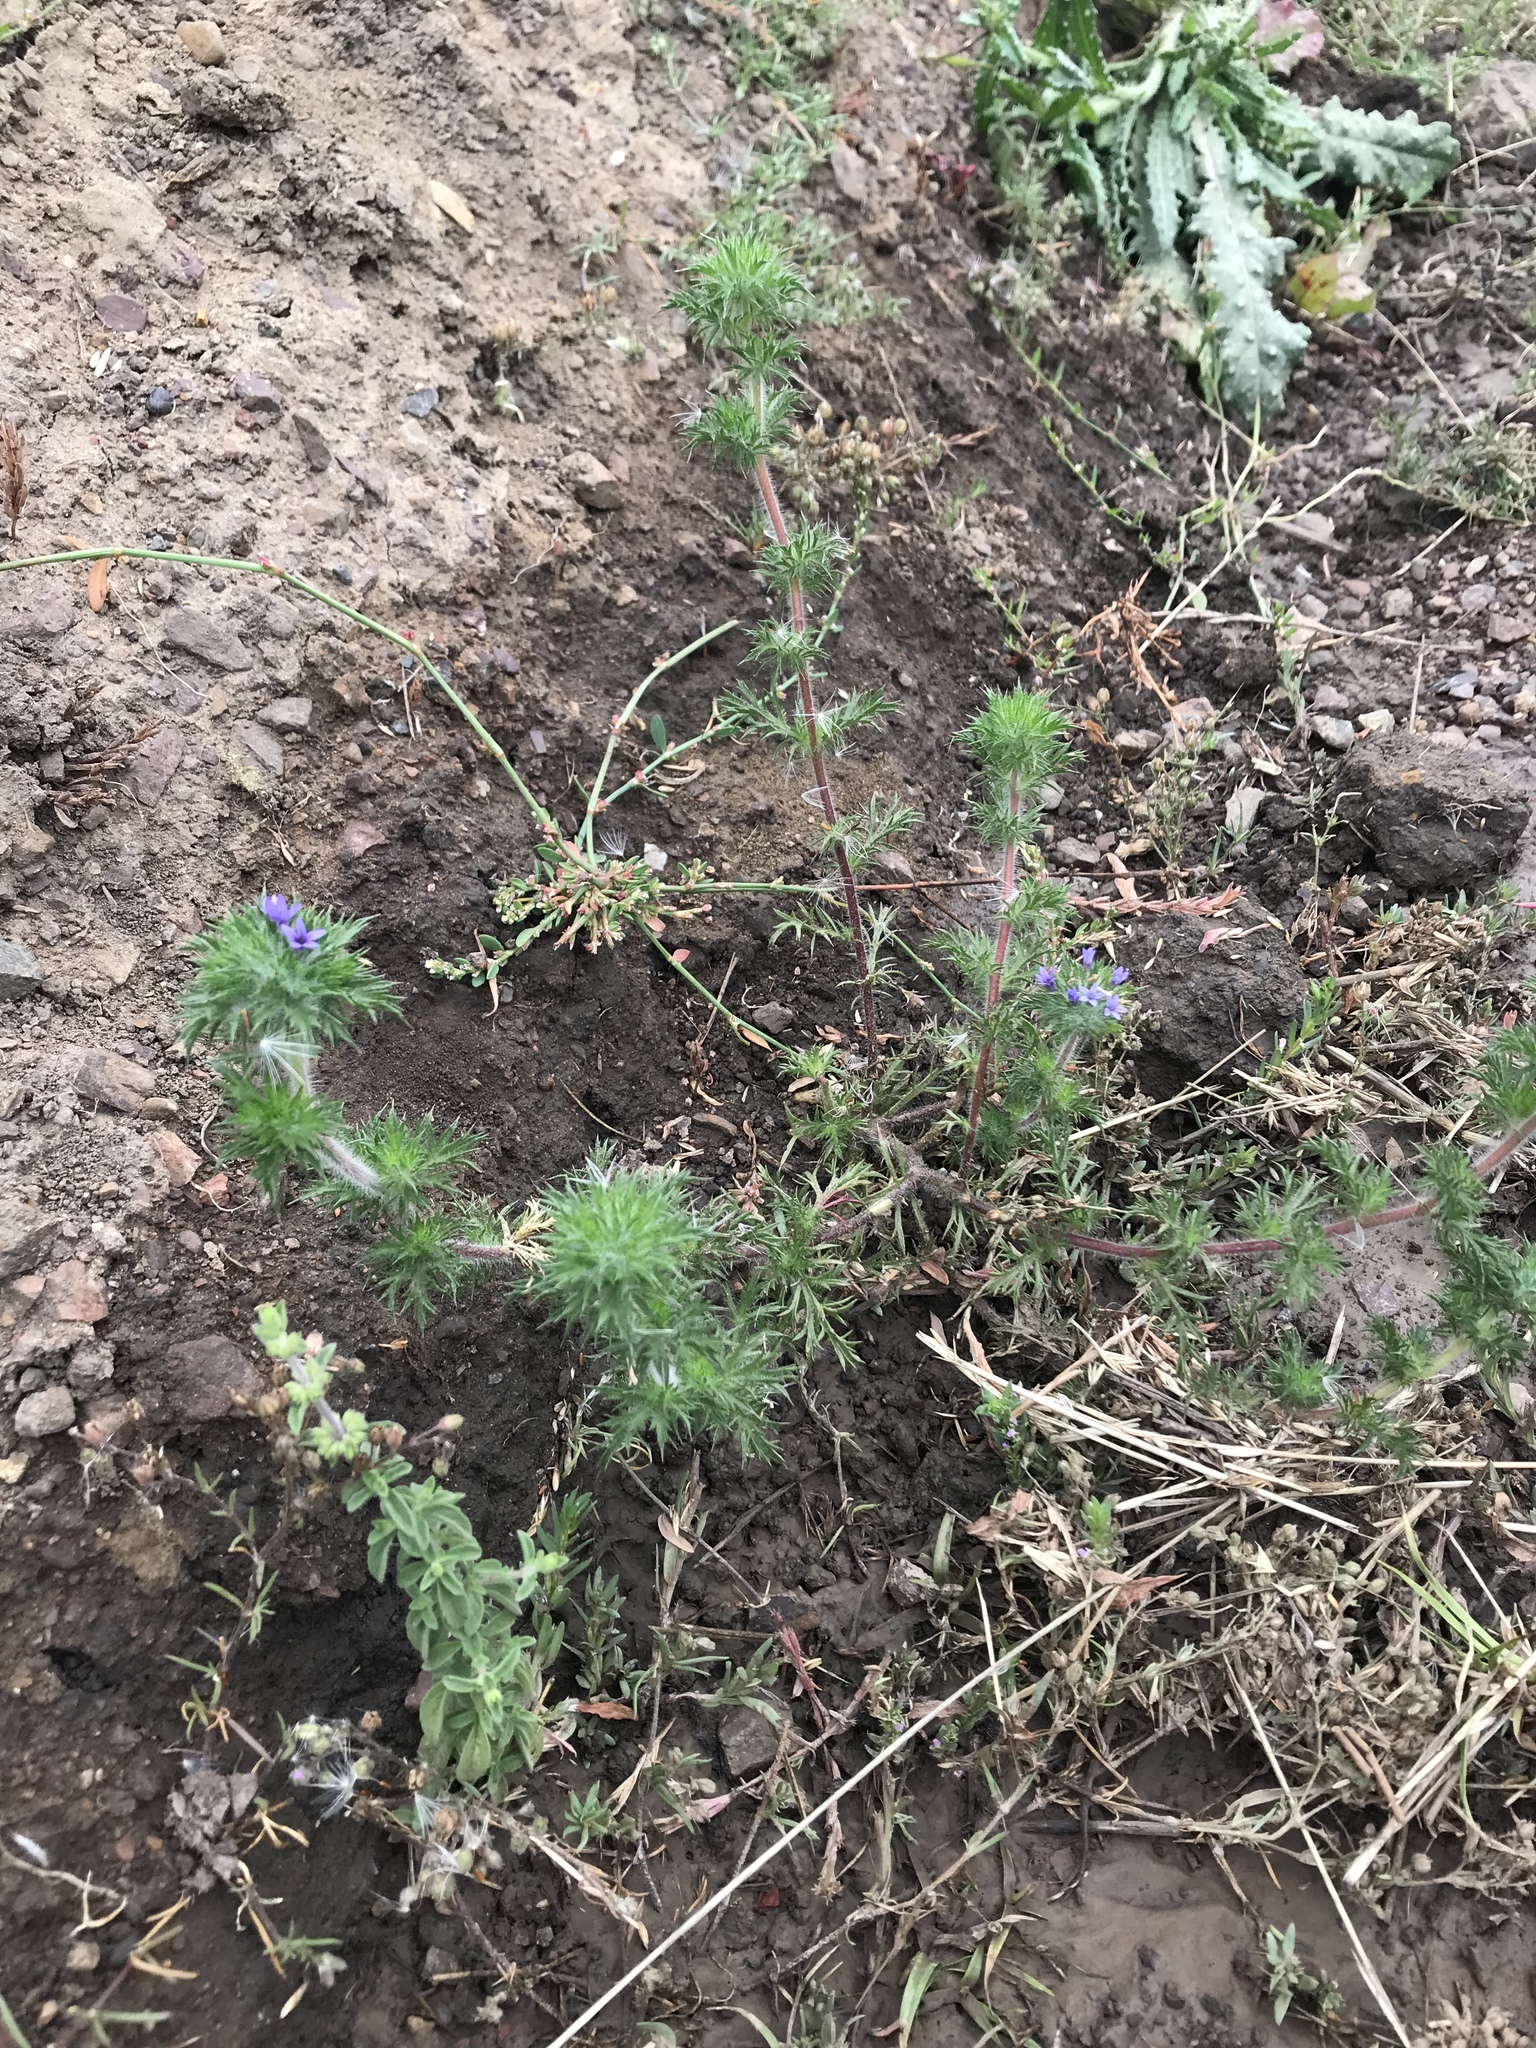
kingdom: Plantae
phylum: Tracheophyta
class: Magnoliopsida
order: Ericales
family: Polemoniaceae
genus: Navarretia
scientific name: Navarretia squarrosa
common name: Skunkweed
